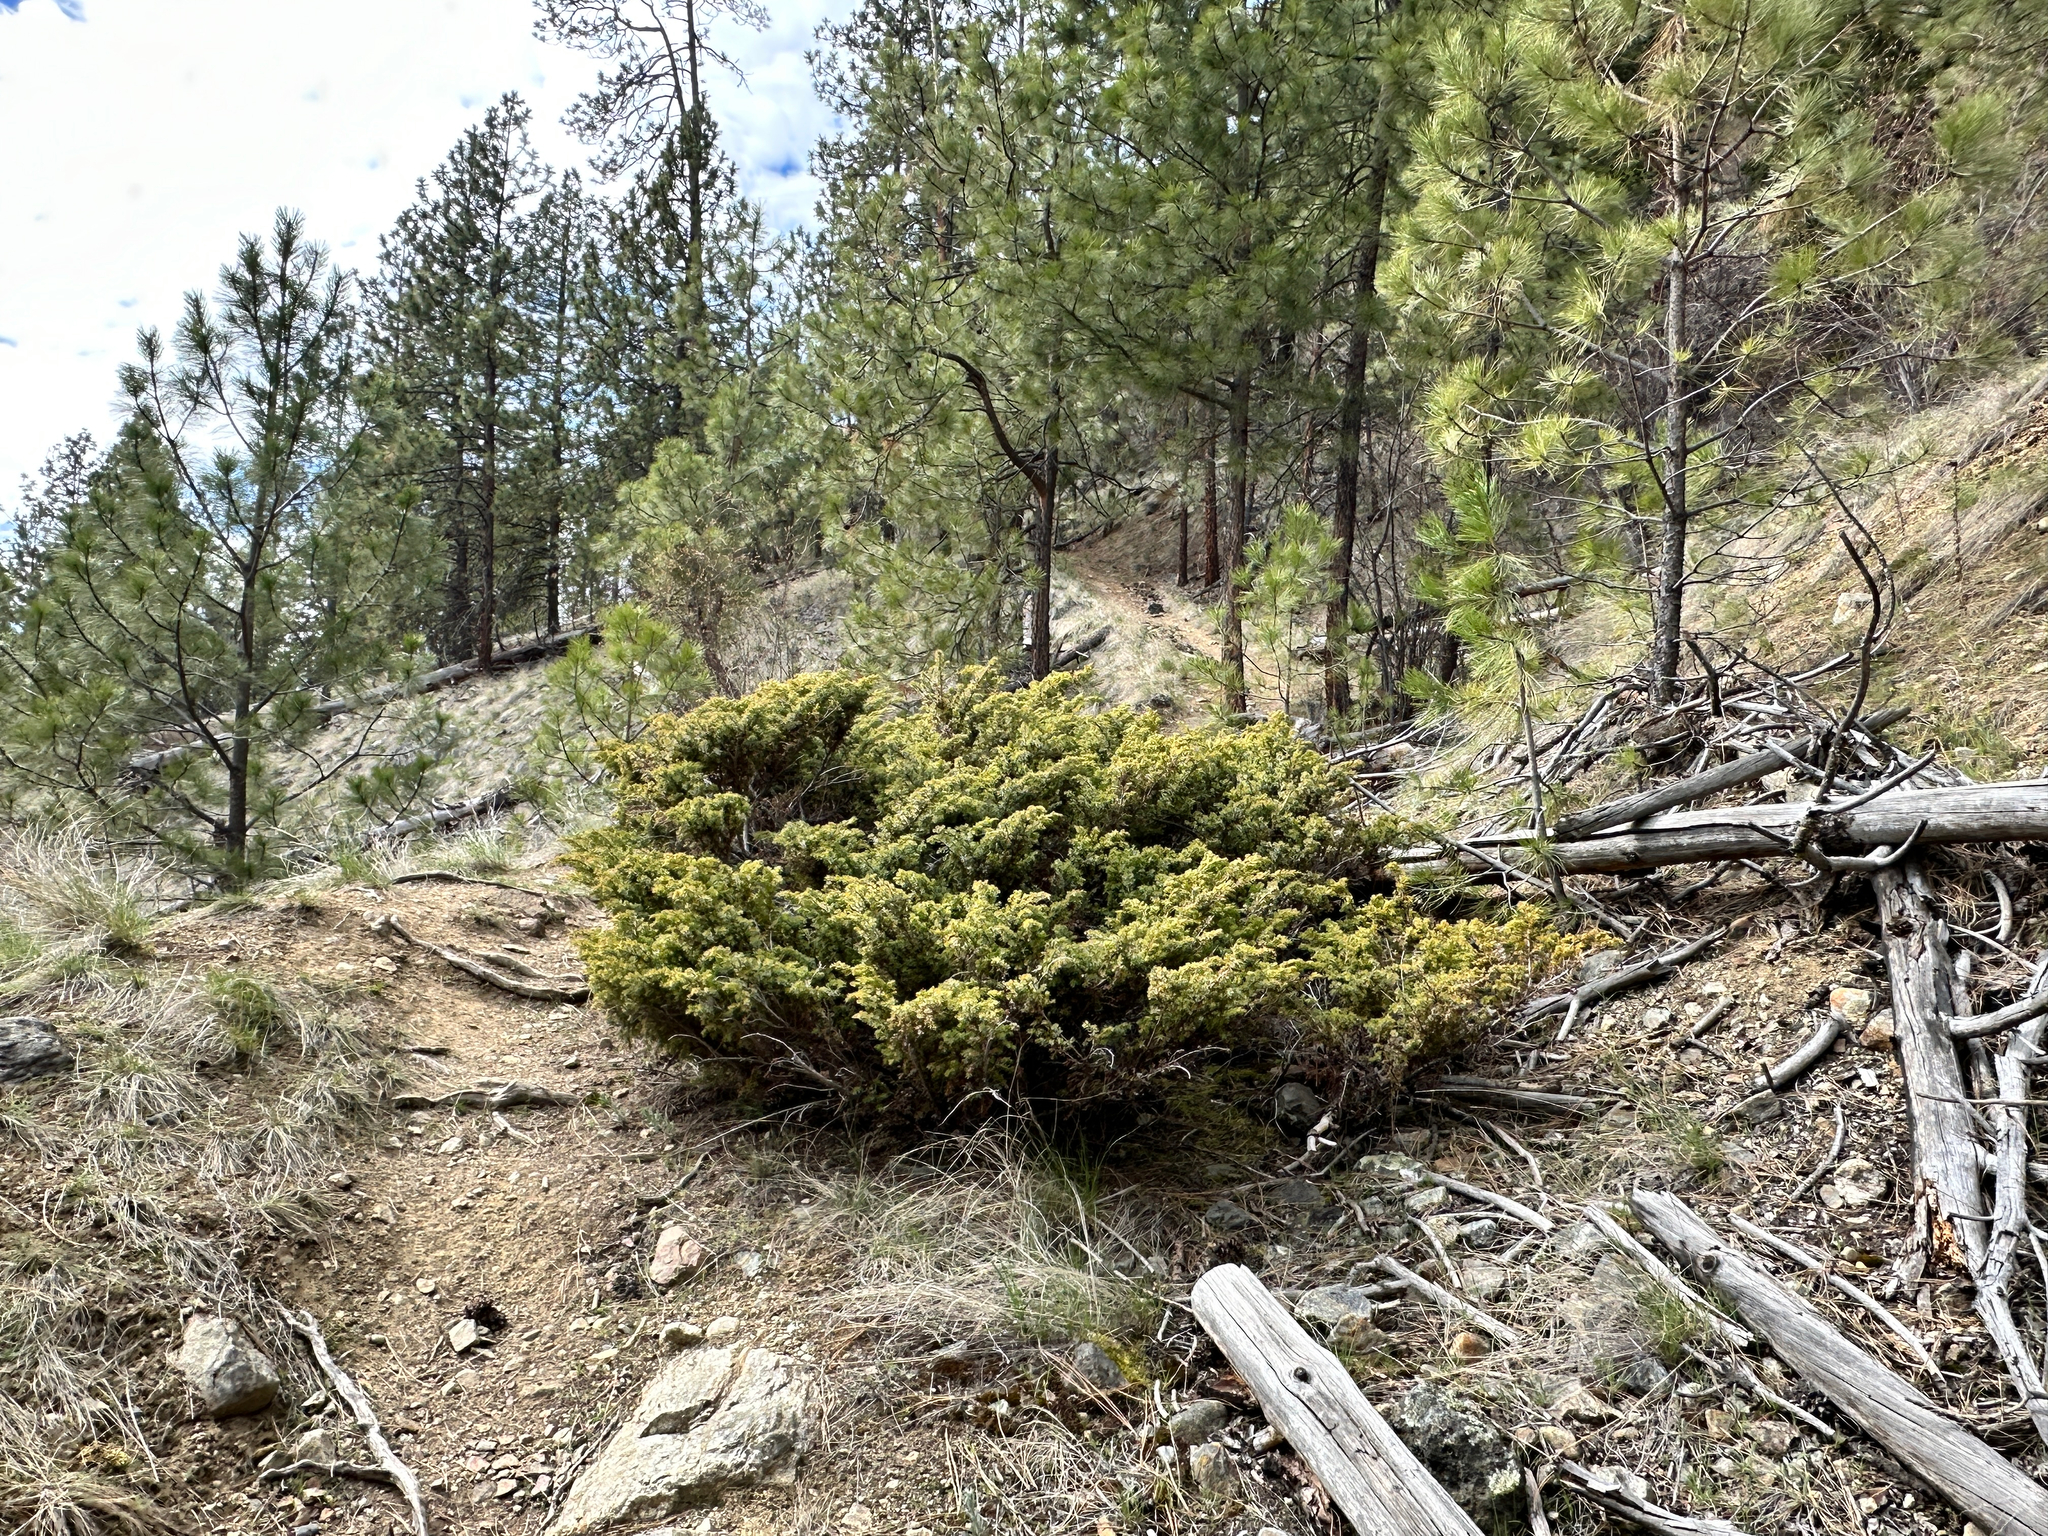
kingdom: Plantae
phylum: Tracheophyta
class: Pinopsida
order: Pinales
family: Cupressaceae
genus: Juniperus
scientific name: Juniperus communis
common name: Common juniper
